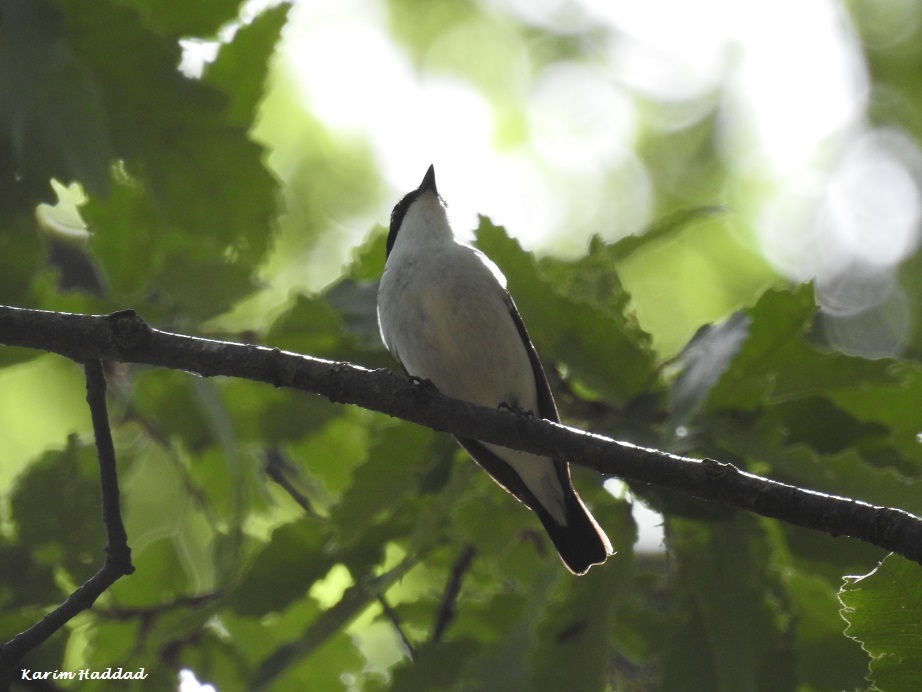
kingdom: Animalia
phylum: Chordata
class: Aves
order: Passeriformes
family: Muscicapidae
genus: Ficedula
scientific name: Ficedula speculigera
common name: Atlas pied flycatcher
